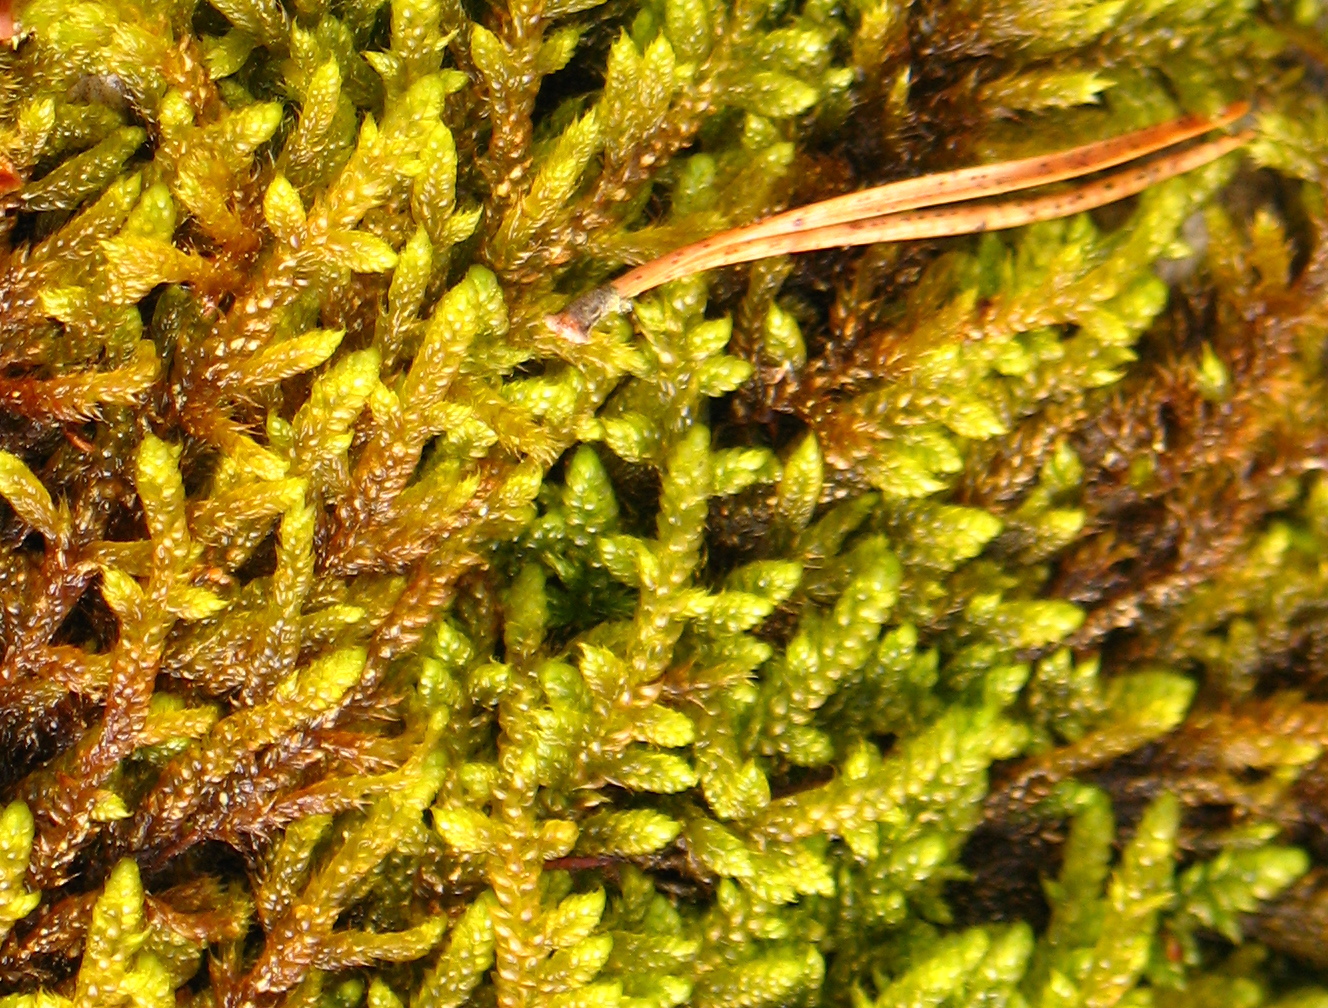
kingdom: Plantae
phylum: Bryophyta
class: Bryopsida
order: Hypnales
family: Hypnaceae
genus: Hypnum
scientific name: Hypnum cupressiforme
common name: Cypress-leaved plait-moss
